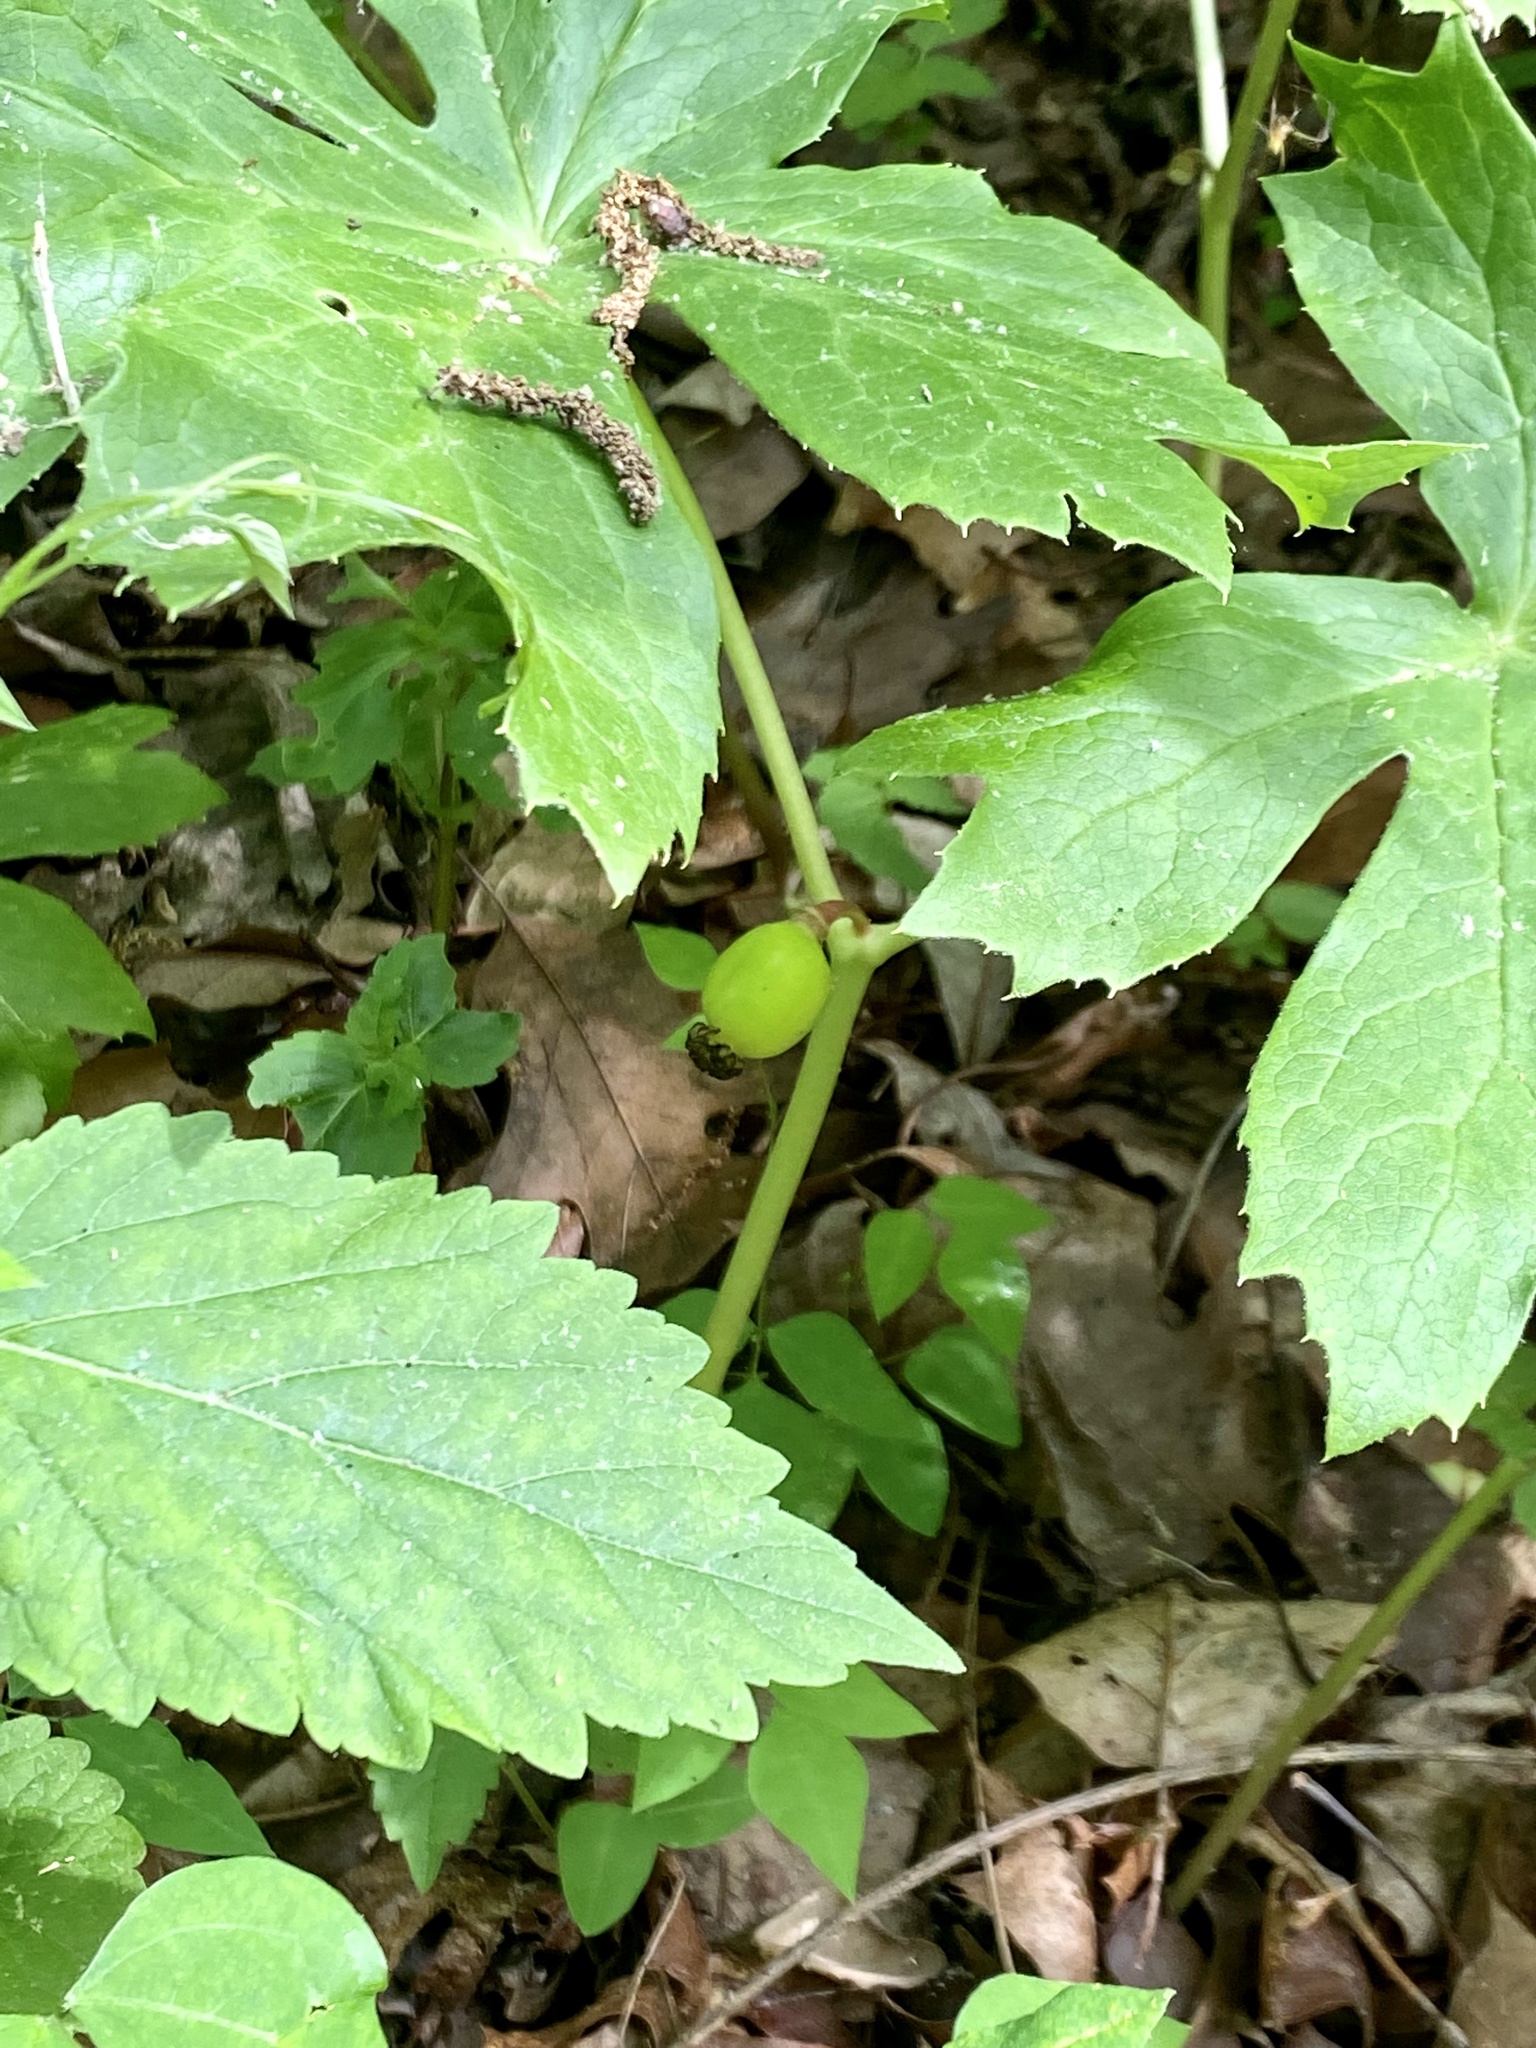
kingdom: Plantae
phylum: Tracheophyta
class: Magnoliopsida
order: Ranunculales
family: Berberidaceae
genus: Podophyllum
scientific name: Podophyllum peltatum
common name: Wild mandrake
